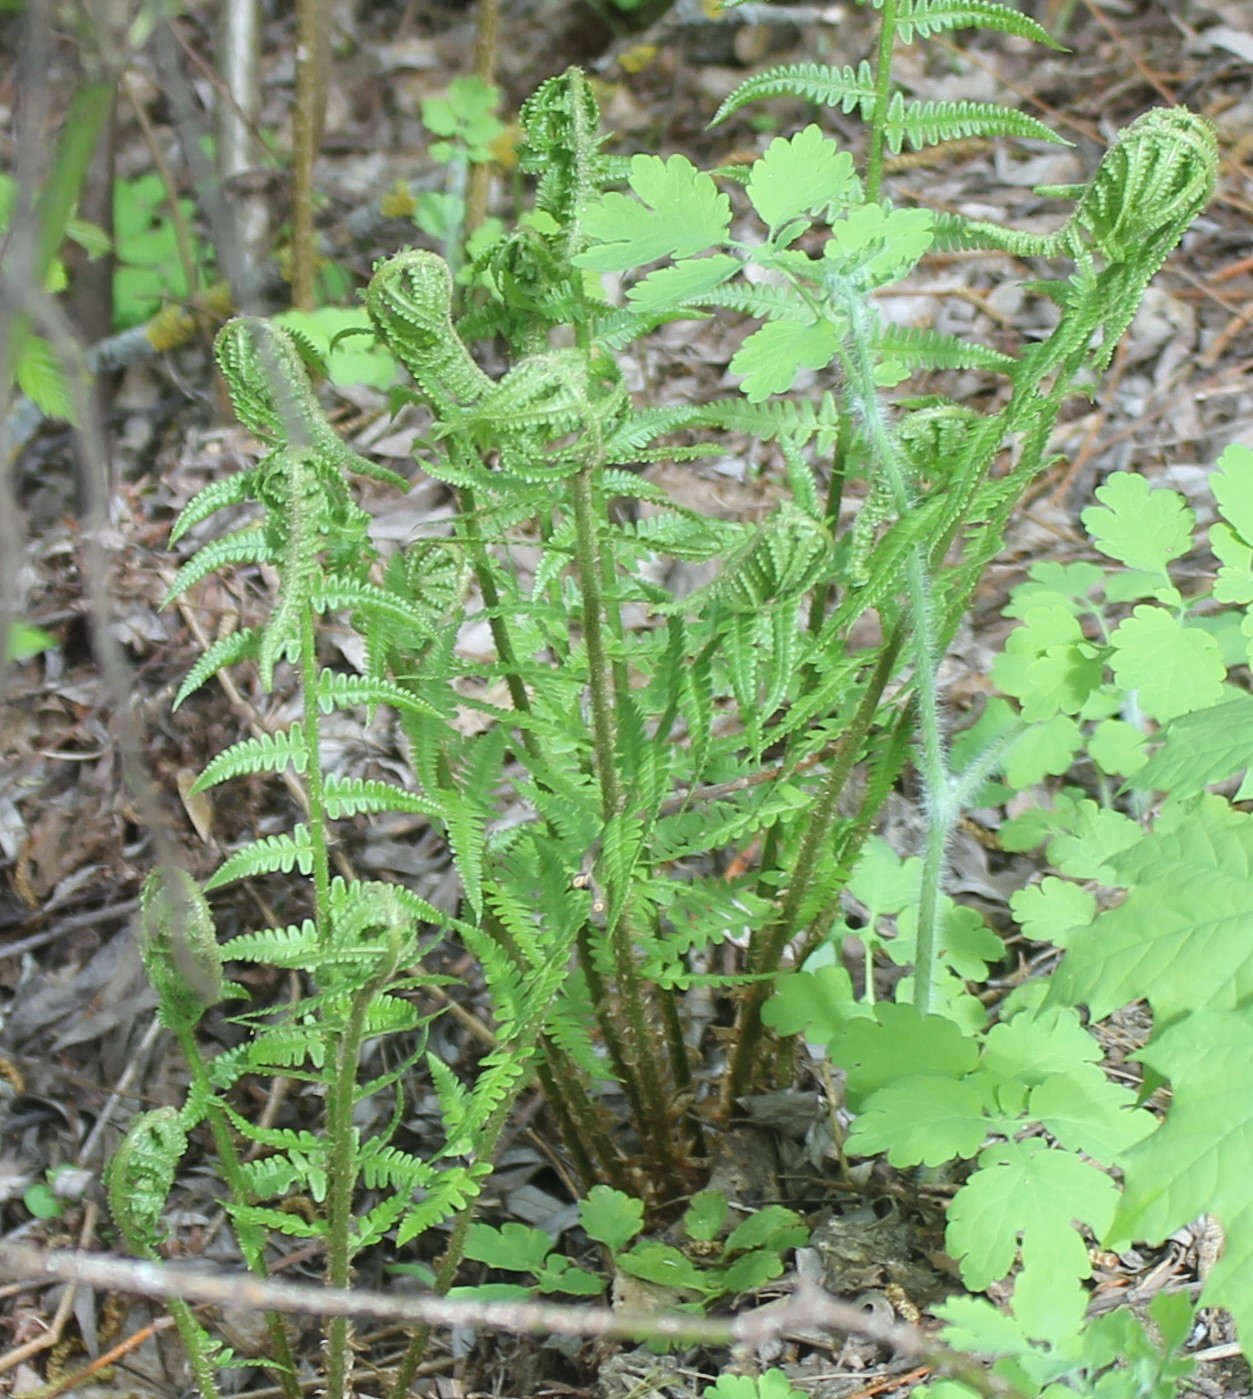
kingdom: Plantae
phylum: Tracheophyta
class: Polypodiopsida
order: Polypodiales
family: Dryopteridaceae
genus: Dryopteris
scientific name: Dryopteris filix-mas
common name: Male fern
